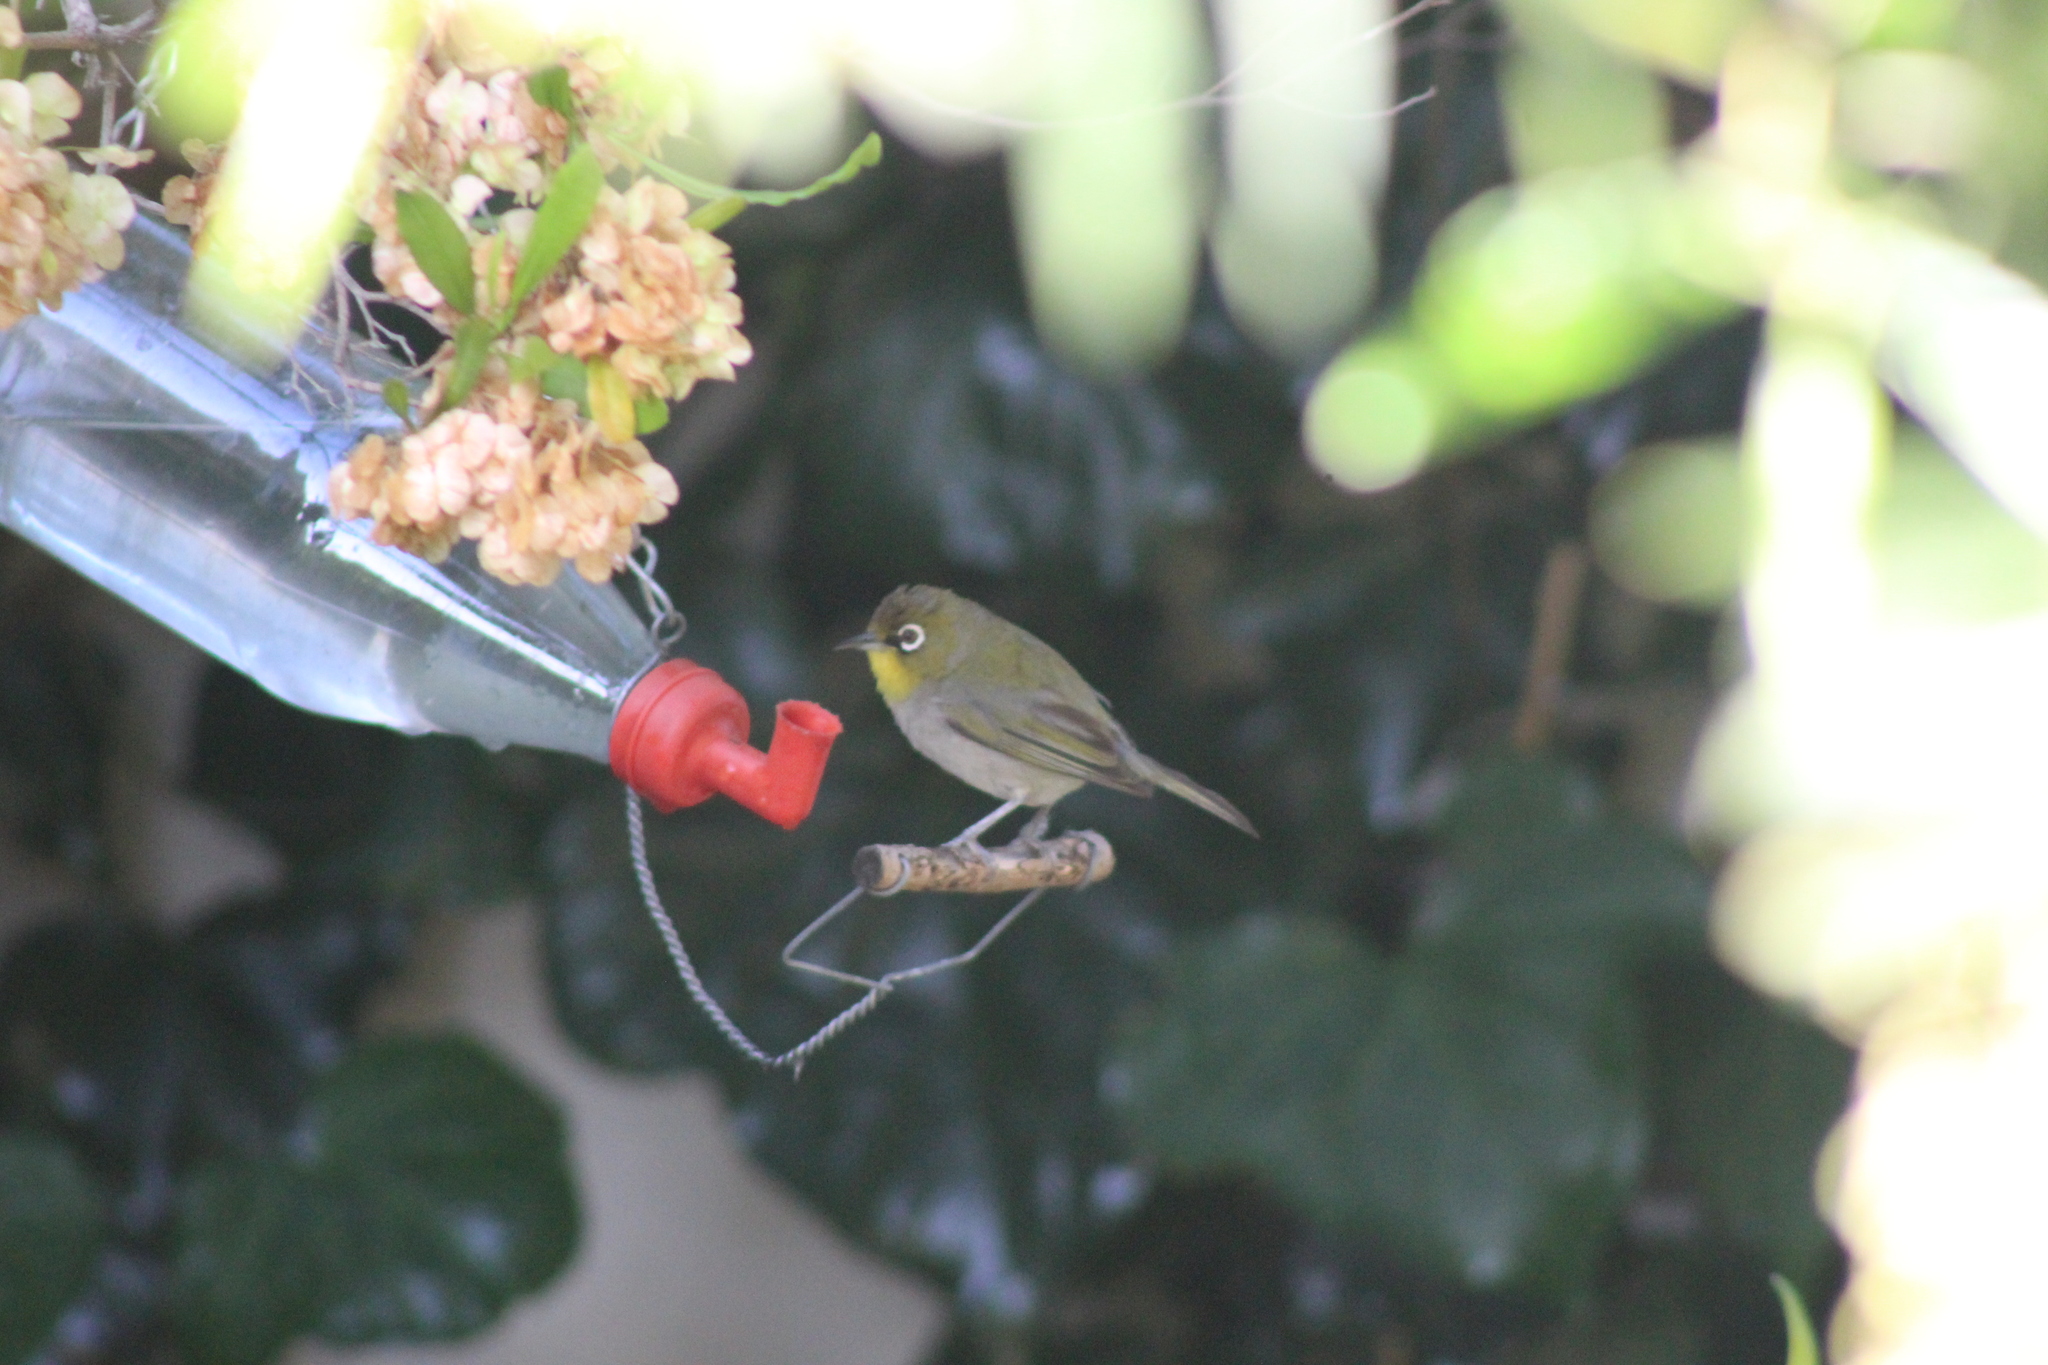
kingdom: Animalia
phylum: Chordata
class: Aves
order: Passeriformes
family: Zosteropidae
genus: Zosterops
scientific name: Zosterops virens
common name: Cape white-eye
